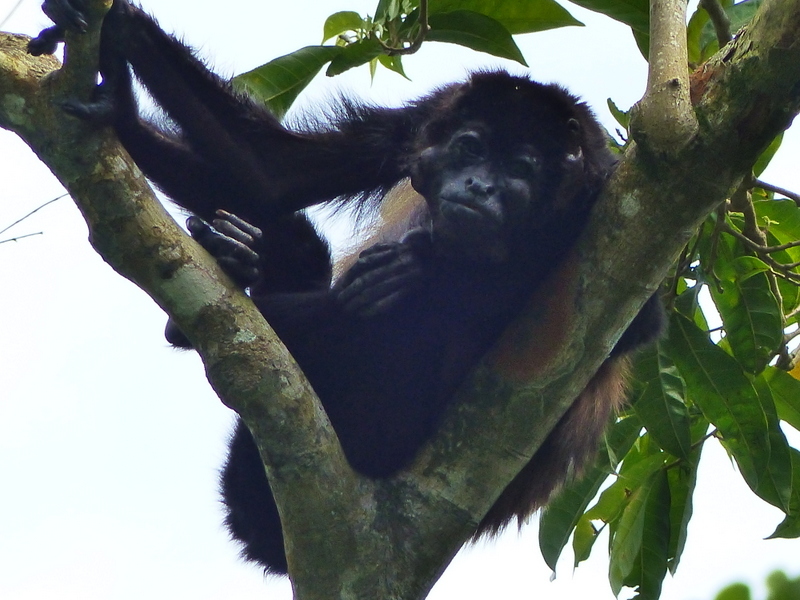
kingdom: Animalia
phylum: Chordata
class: Mammalia
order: Primates
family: Atelidae
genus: Alouatta
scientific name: Alouatta palliata
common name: Mantled howler
